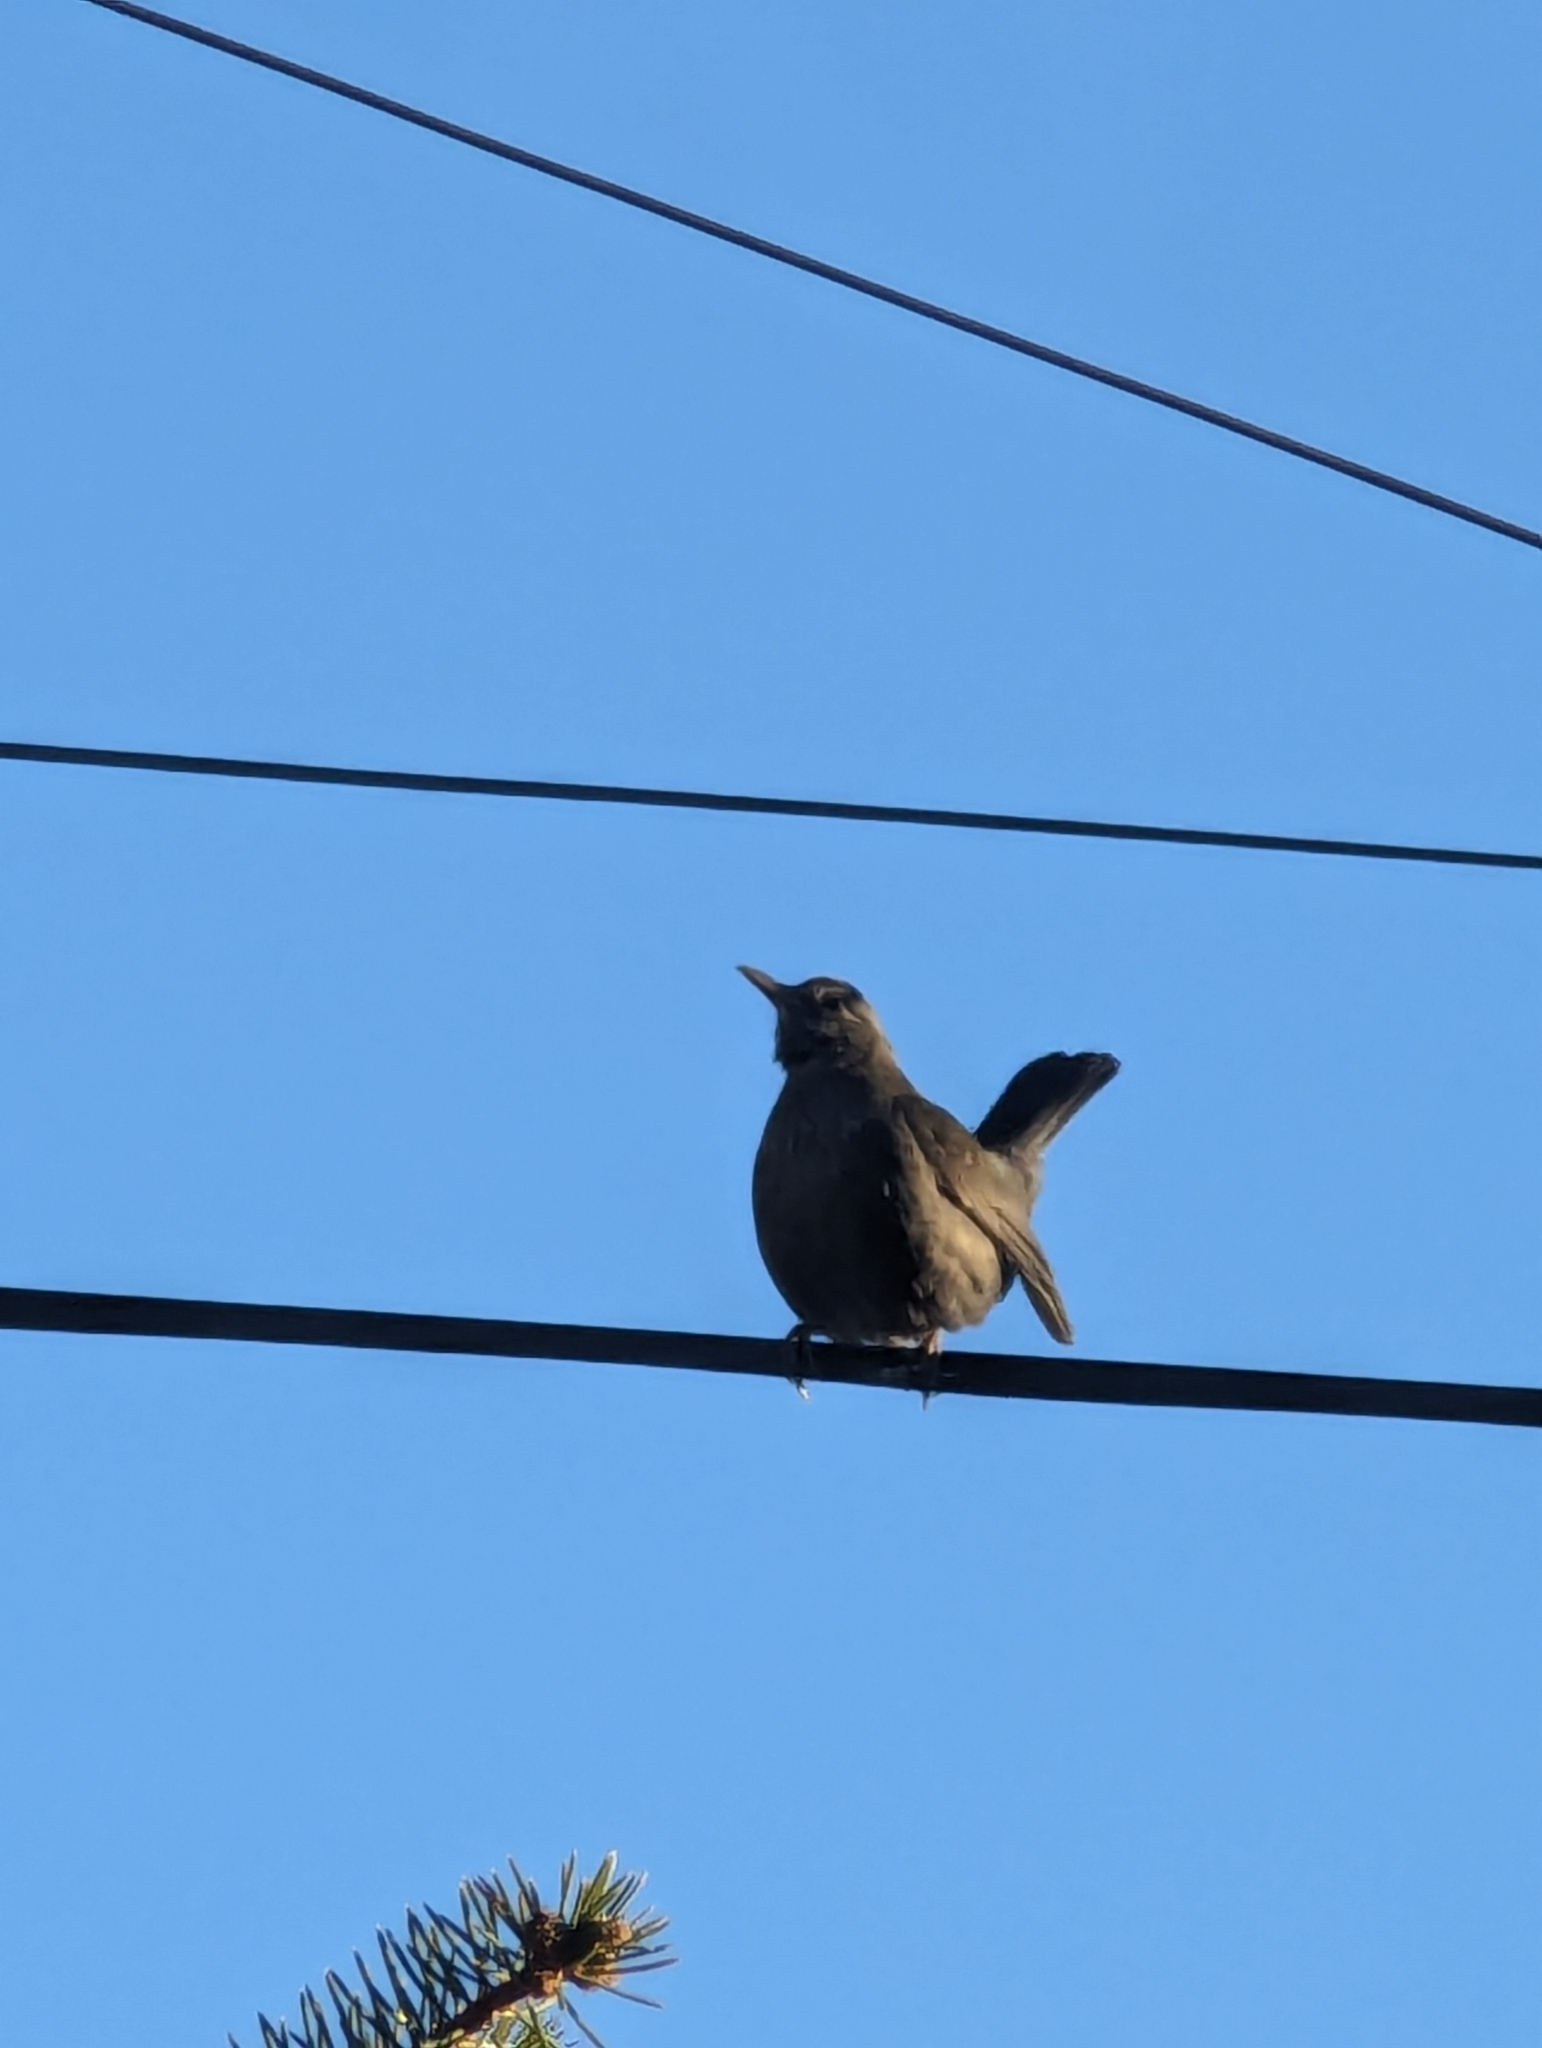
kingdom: Animalia
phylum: Chordata
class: Aves
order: Passeriformes
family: Turdidae
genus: Turdus
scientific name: Turdus merula
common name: Common blackbird
